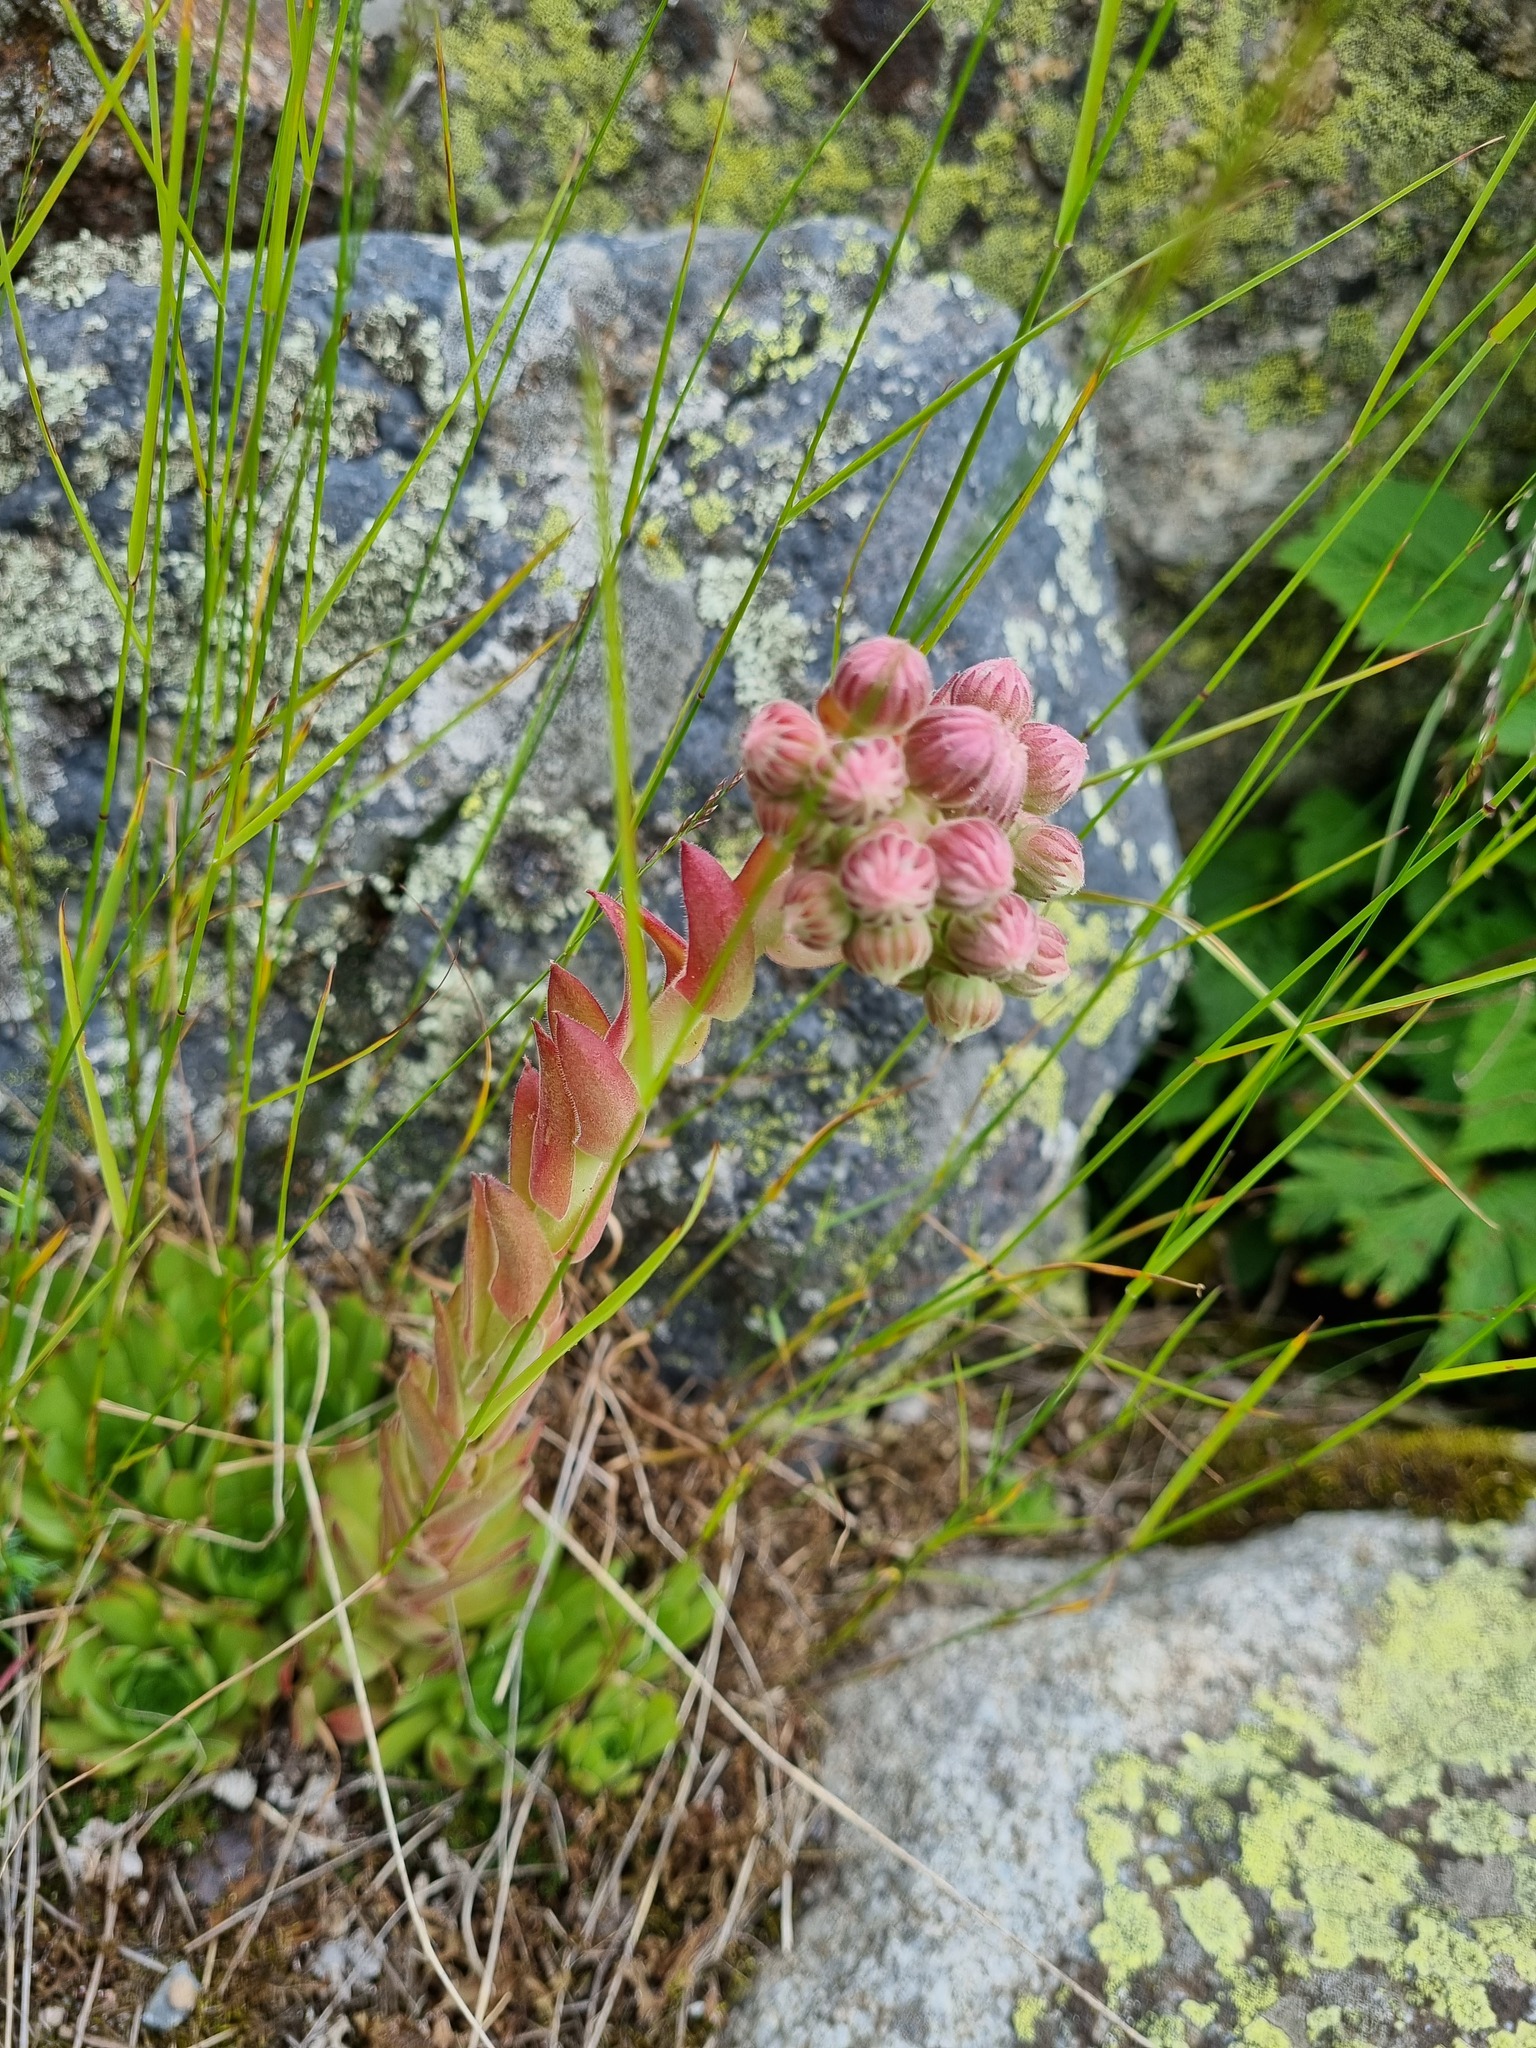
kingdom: Plantae
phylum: Tracheophyta
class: Magnoliopsida
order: Saxifragales
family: Crassulaceae
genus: Sempervivum
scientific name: Sempervivum caucasicum
